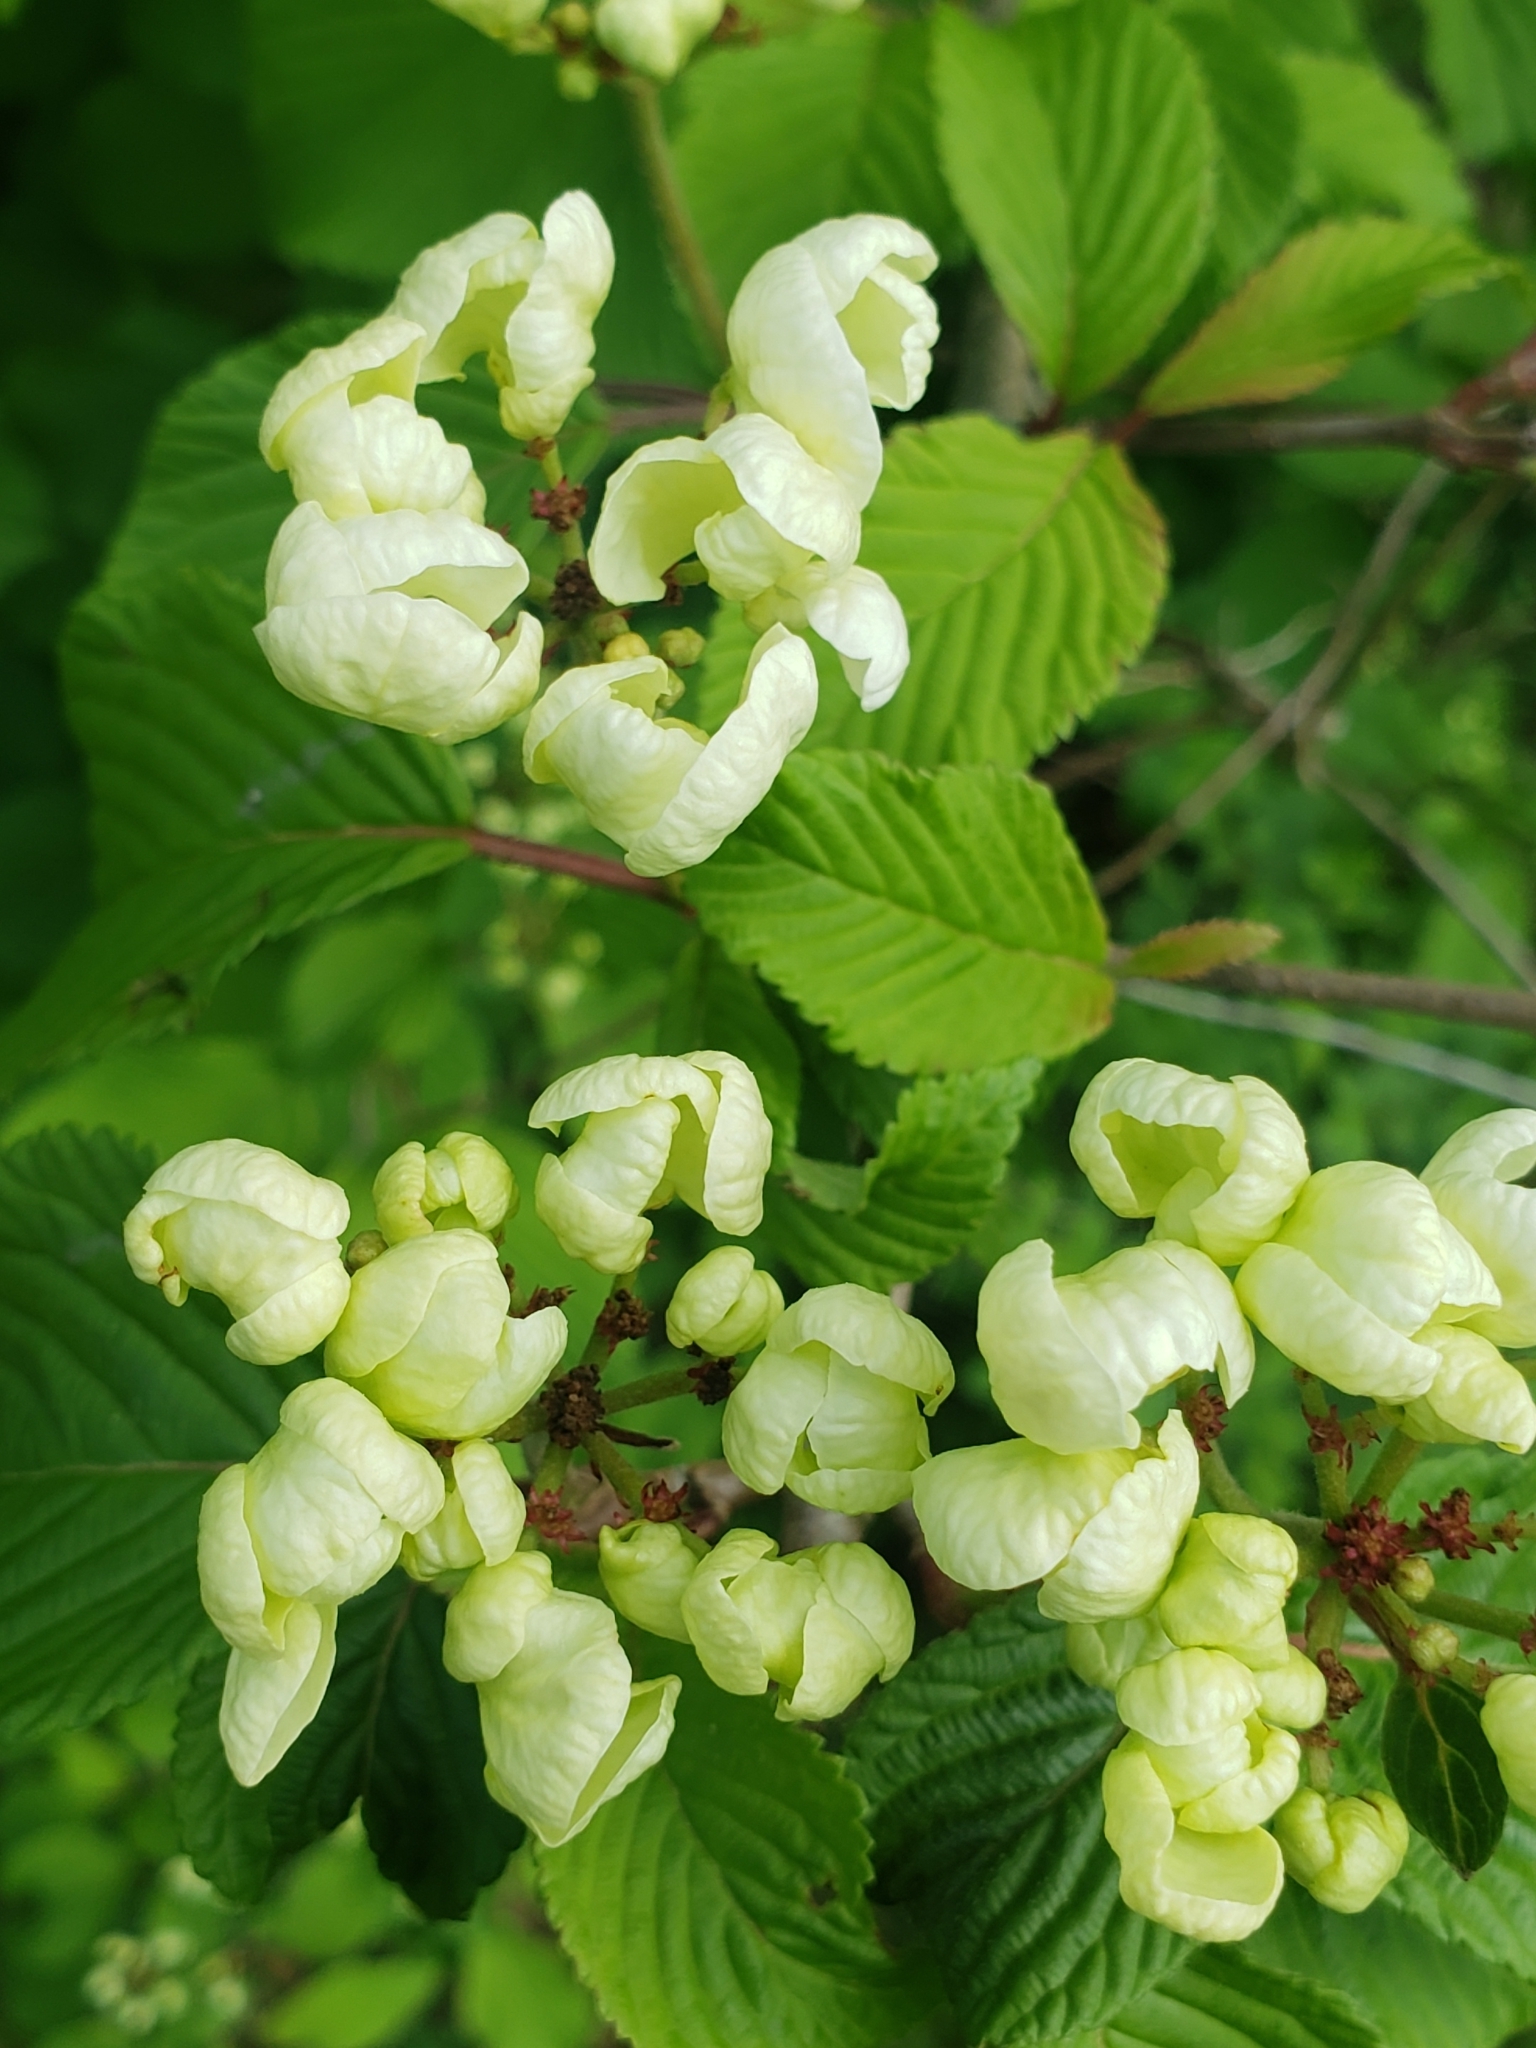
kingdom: Plantae
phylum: Tracheophyta
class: Magnoliopsida
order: Dipsacales
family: Viburnaceae
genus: Viburnum
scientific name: Viburnum plicatum
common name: Japanese snowball
